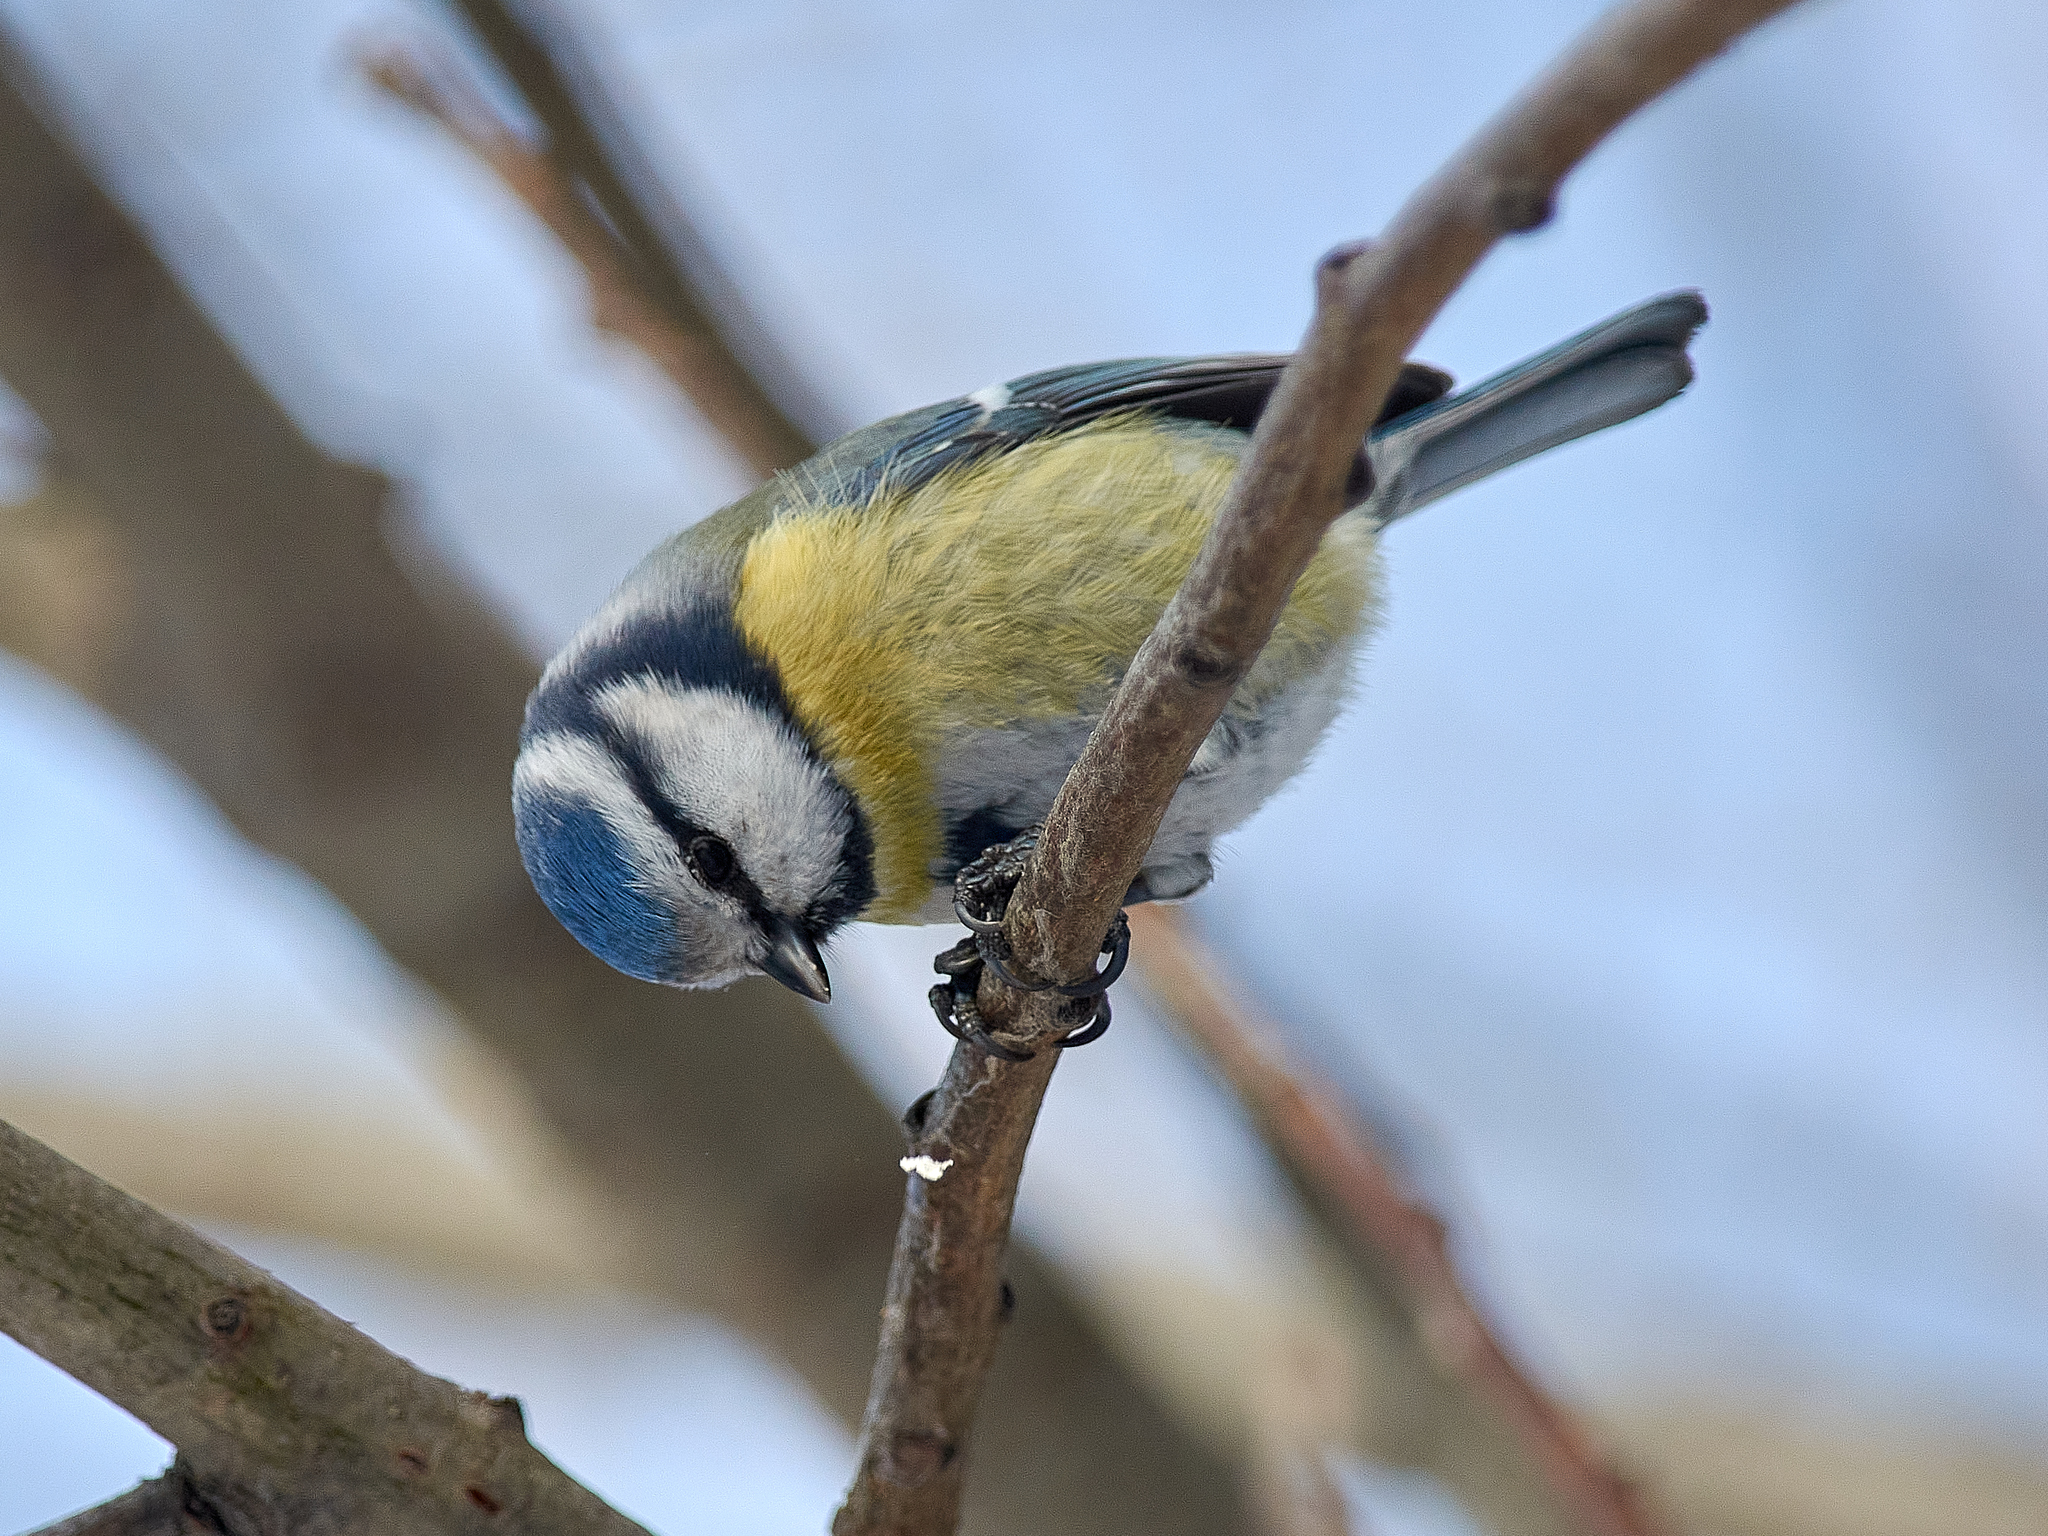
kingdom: Animalia
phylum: Chordata
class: Aves
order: Passeriformes
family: Paridae
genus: Cyanistes
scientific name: Cyanistes caeruleus
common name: Eurasian blue tit
